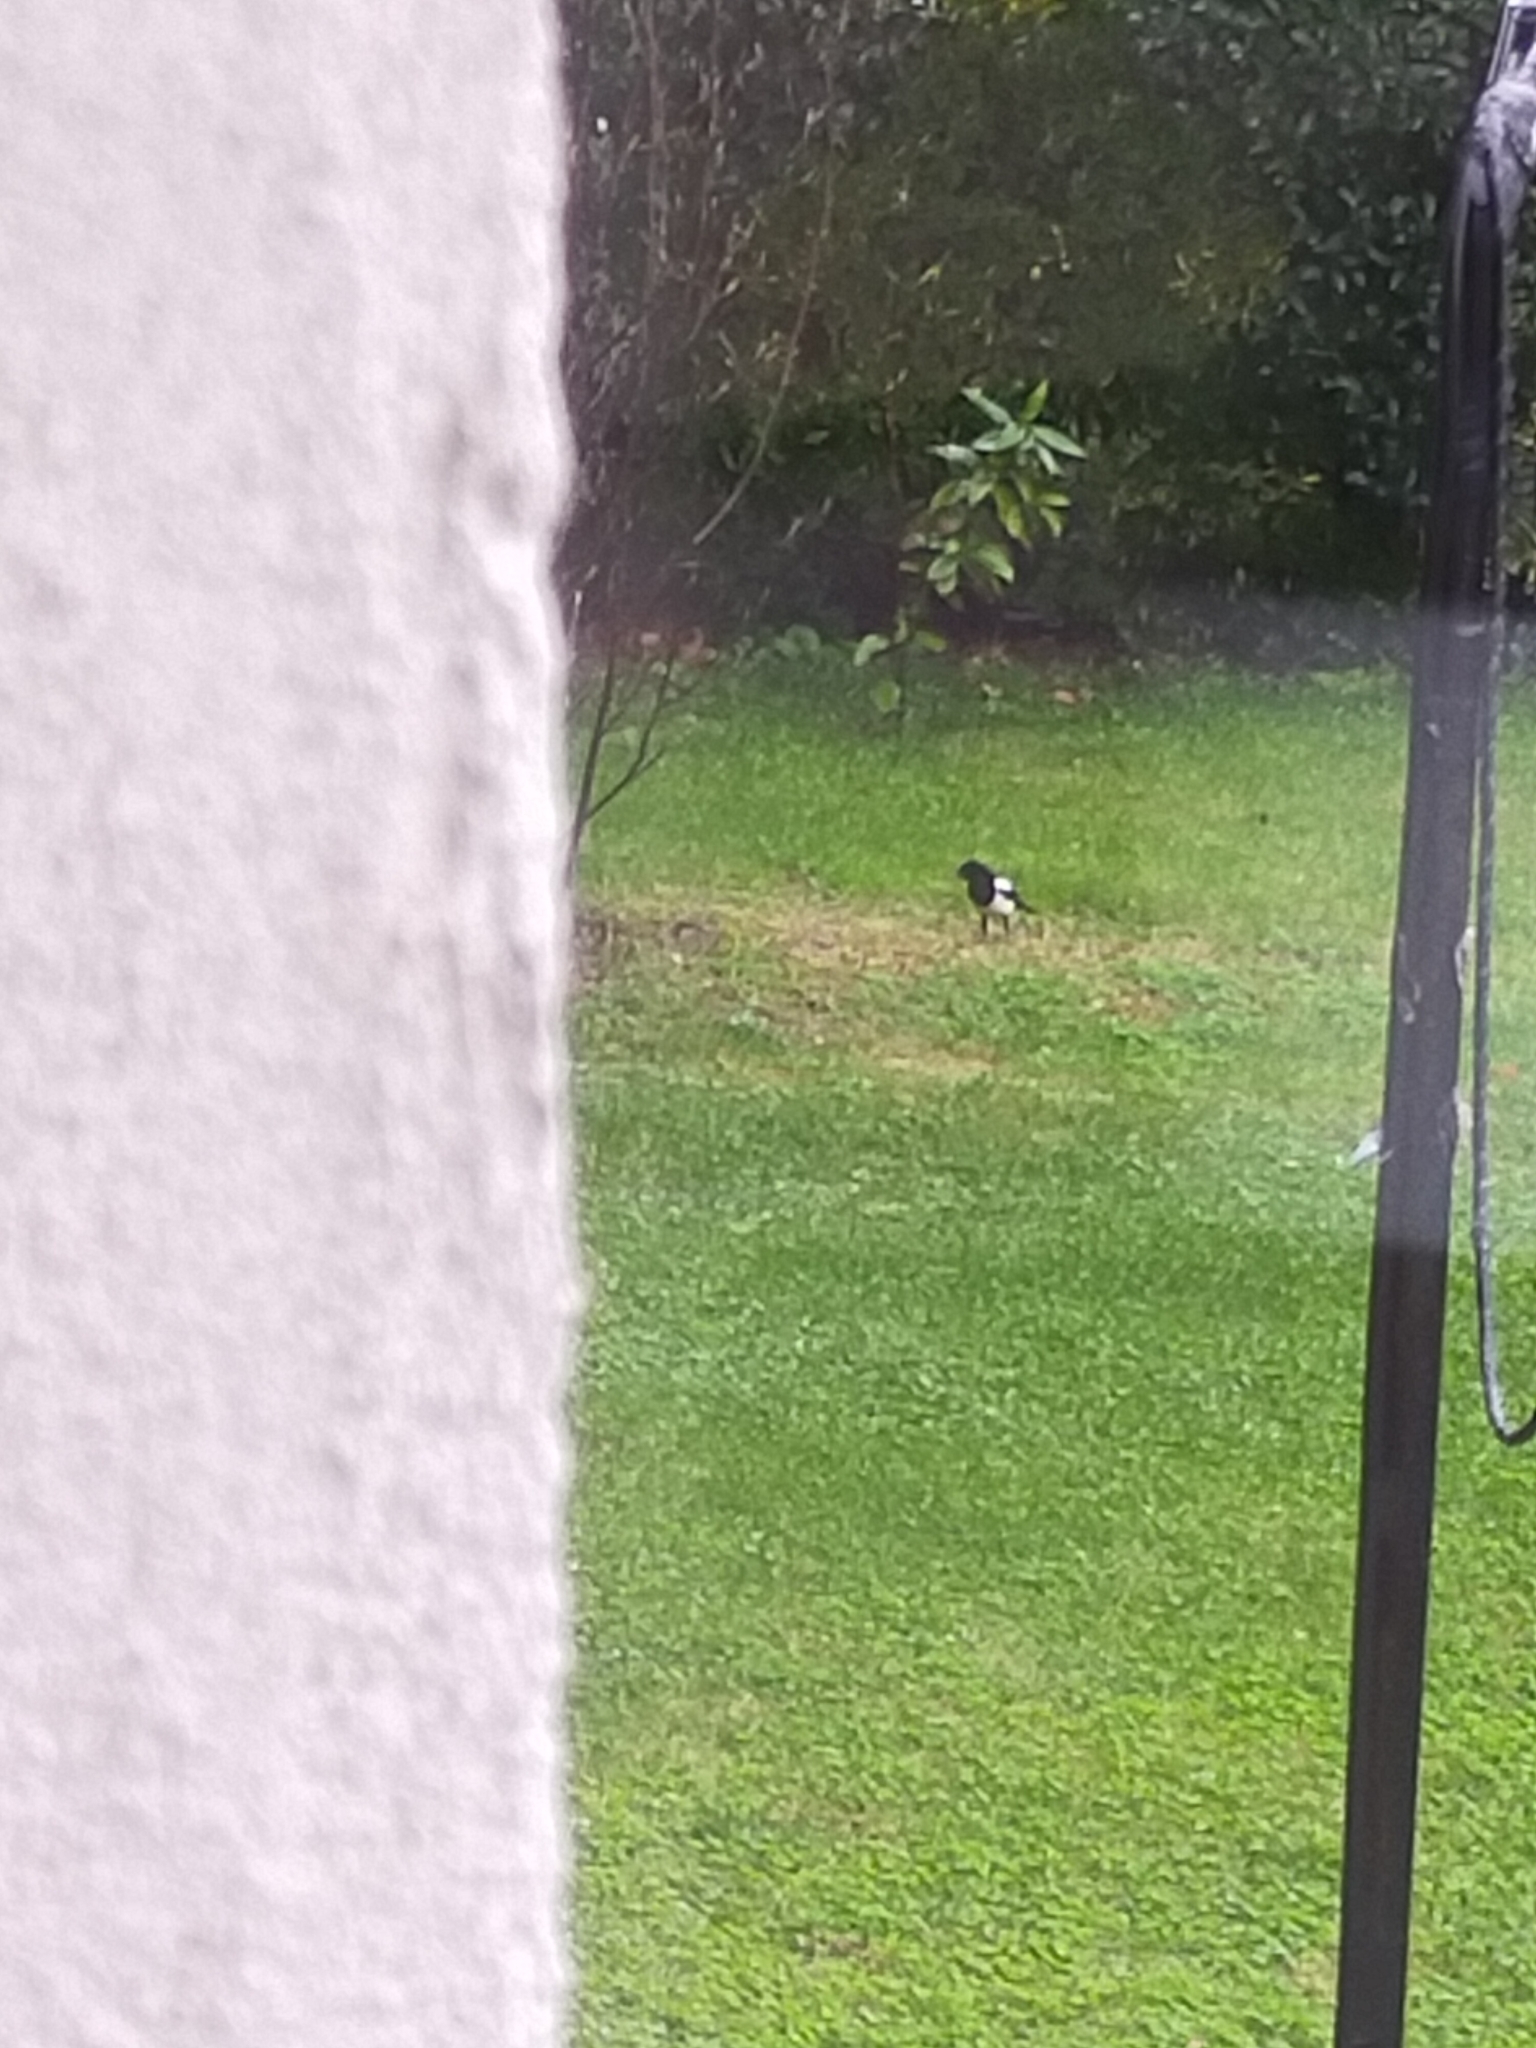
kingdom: Animalia
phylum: Chordata
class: Aves
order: Passeriformes
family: Corvidae
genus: Pica
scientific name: Pica pica
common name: Eurasian magpie
